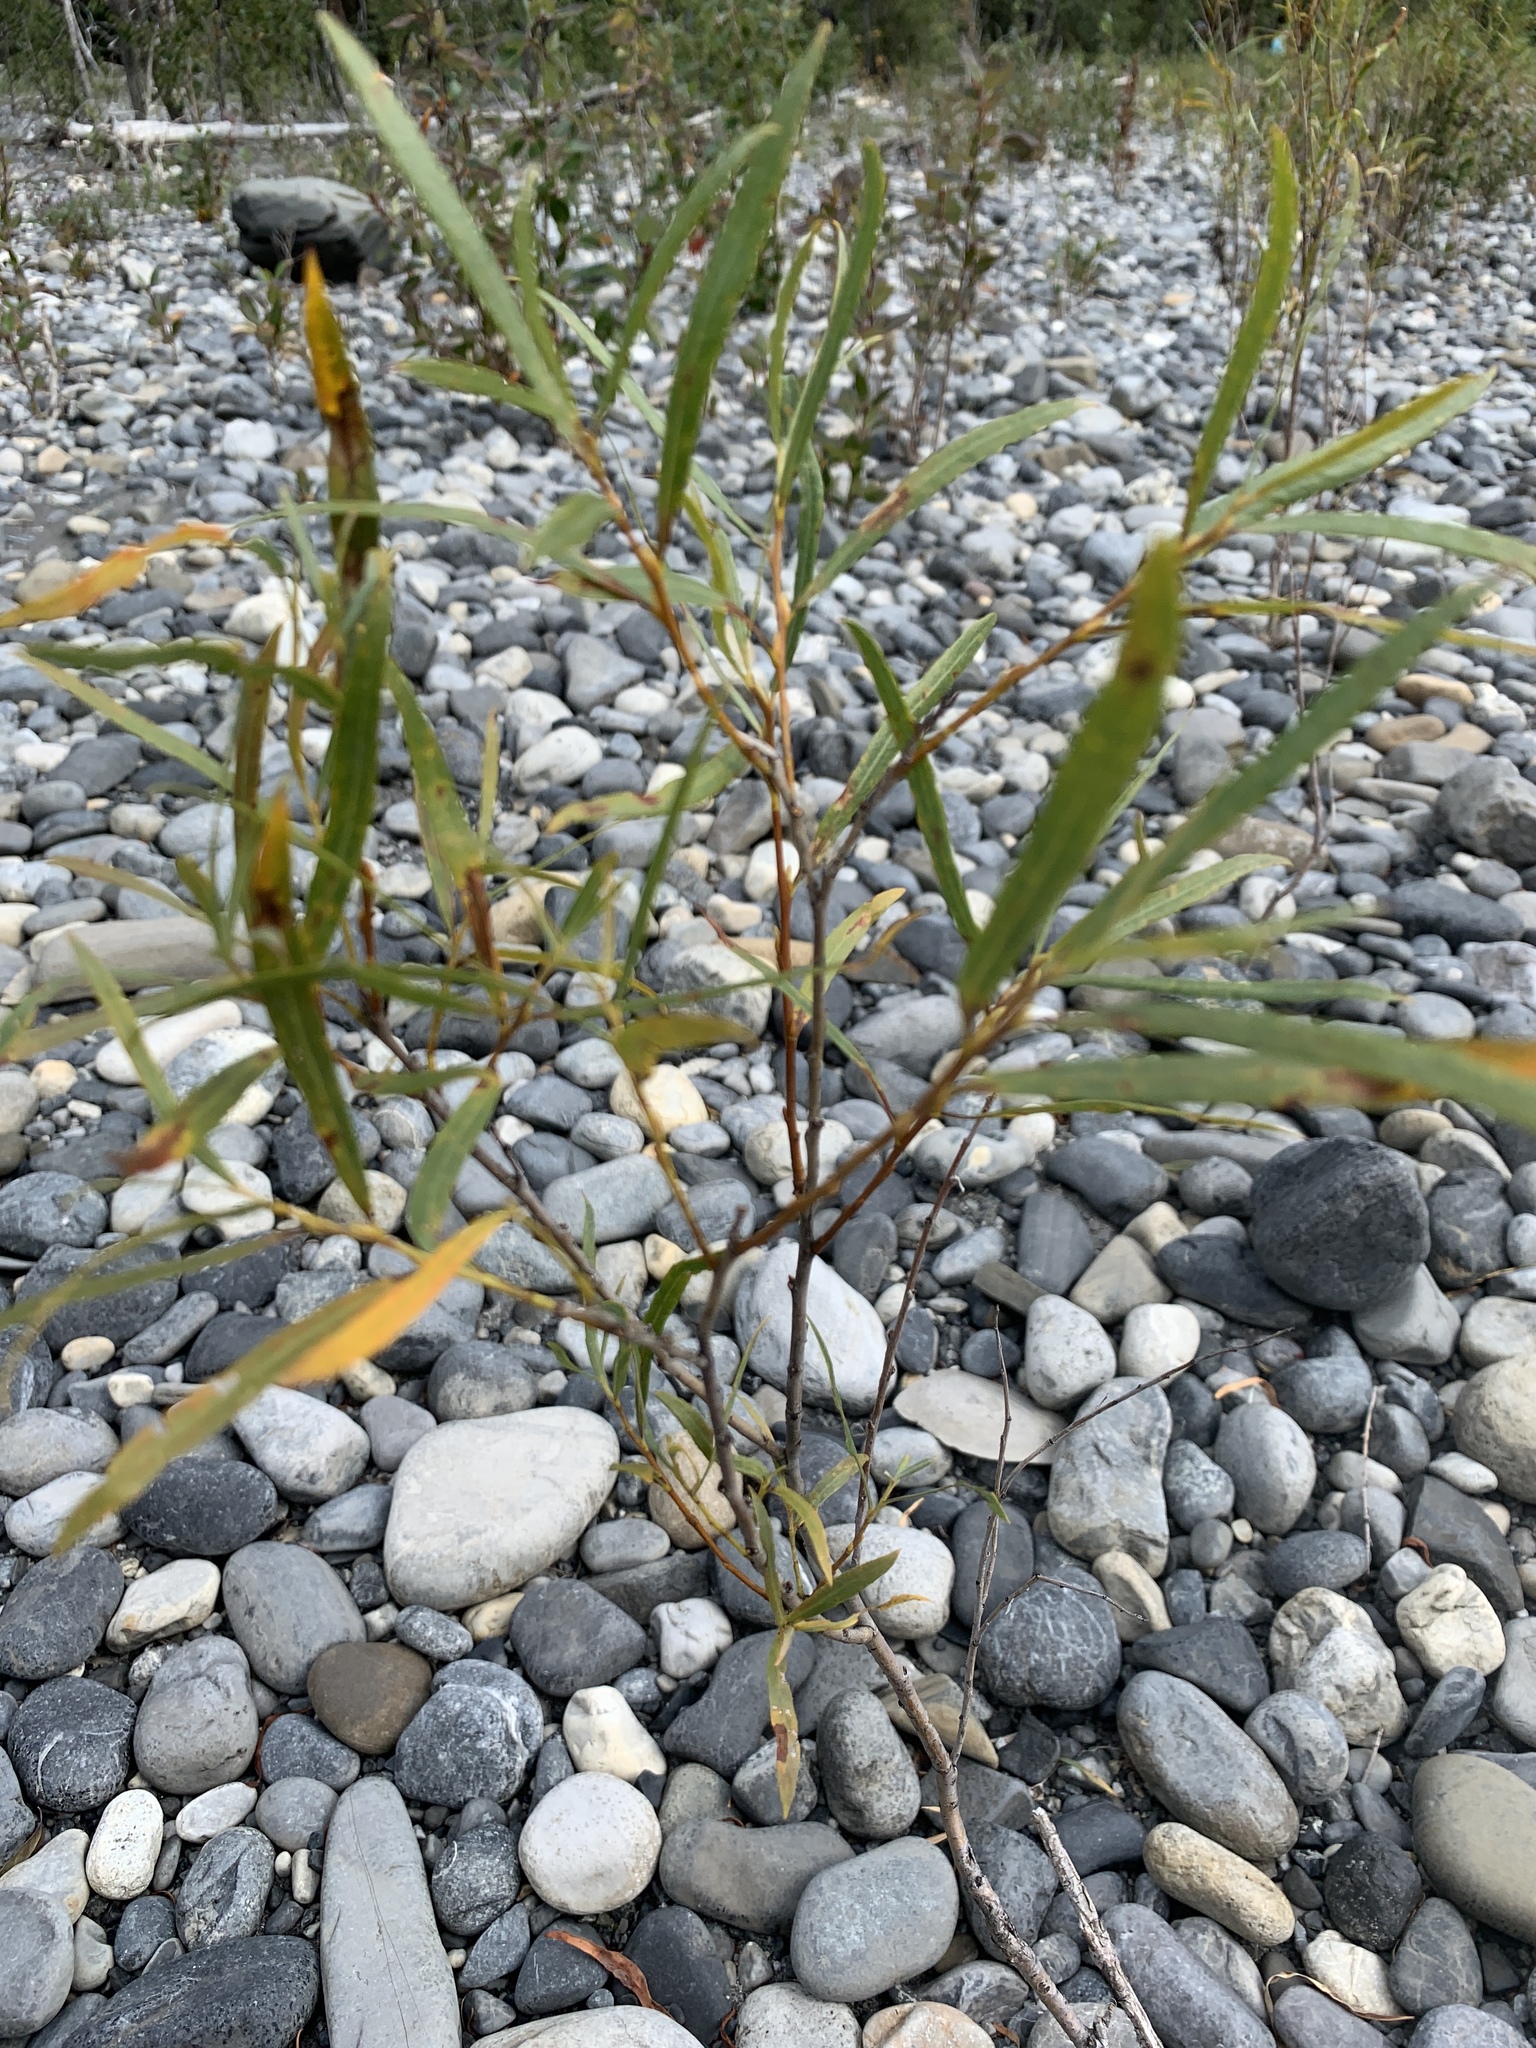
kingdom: Plantae
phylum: Tracheophyta
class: Magnoliopsida
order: Malpighiales
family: Salicaceae
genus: Salix
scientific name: Salix interior
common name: Sandbar willow
